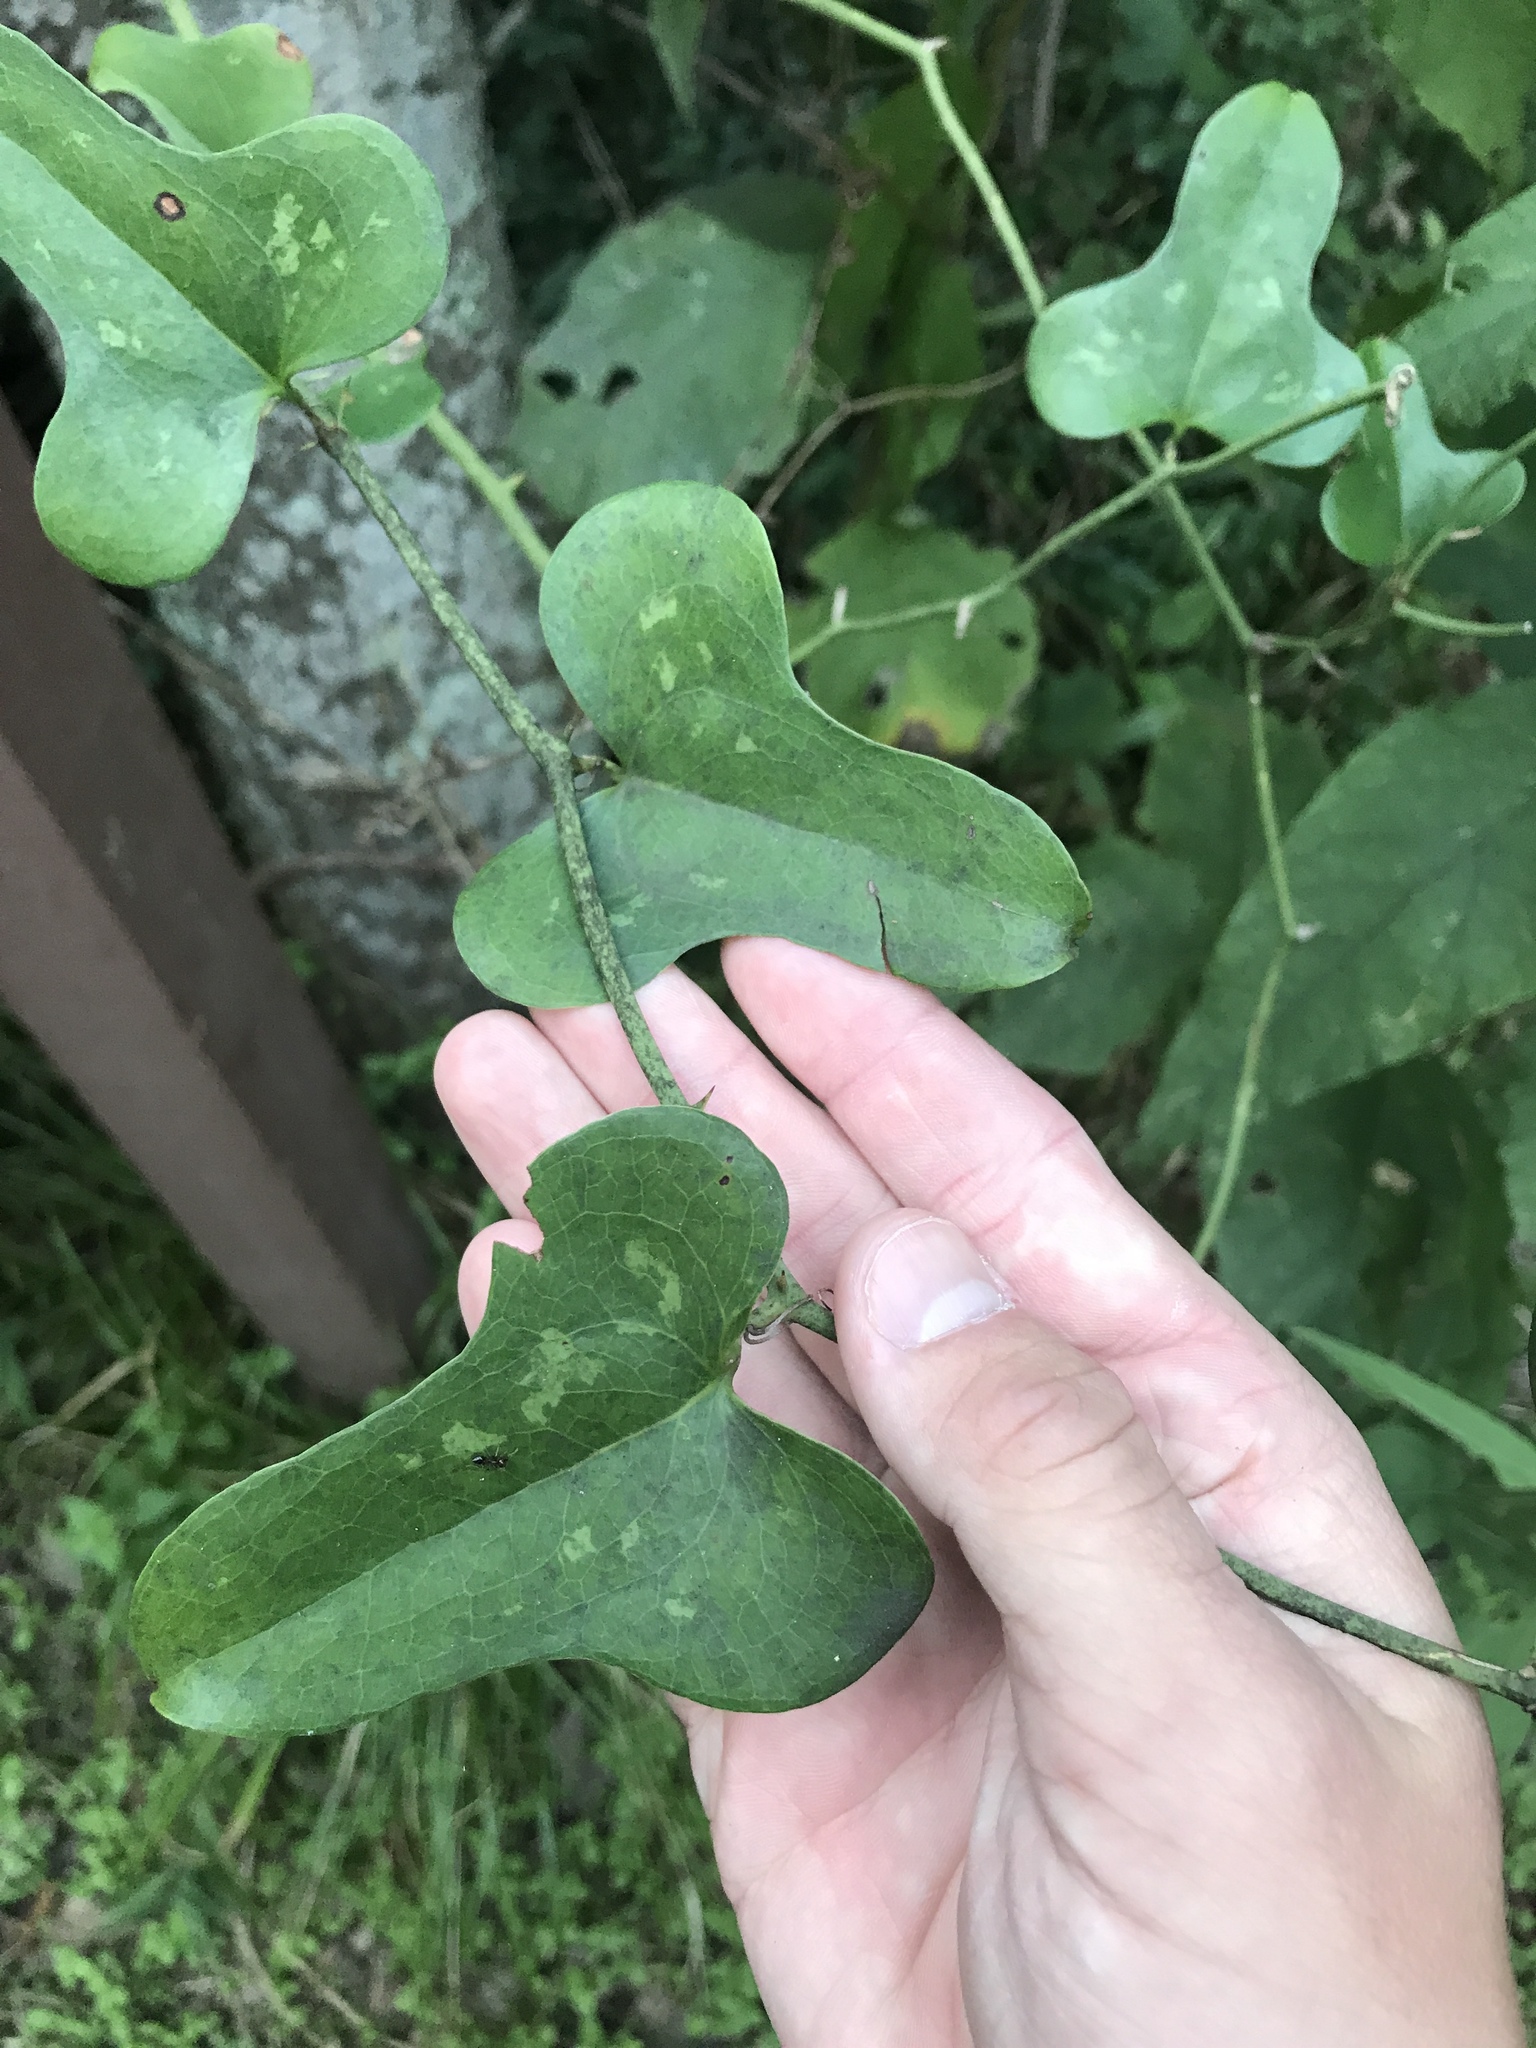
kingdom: Plantae
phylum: Tracheophyta
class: Liliopsida
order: Liliales
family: Smilacaceae
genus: Smilax
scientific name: Smilax bona-nox
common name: Catbrier
